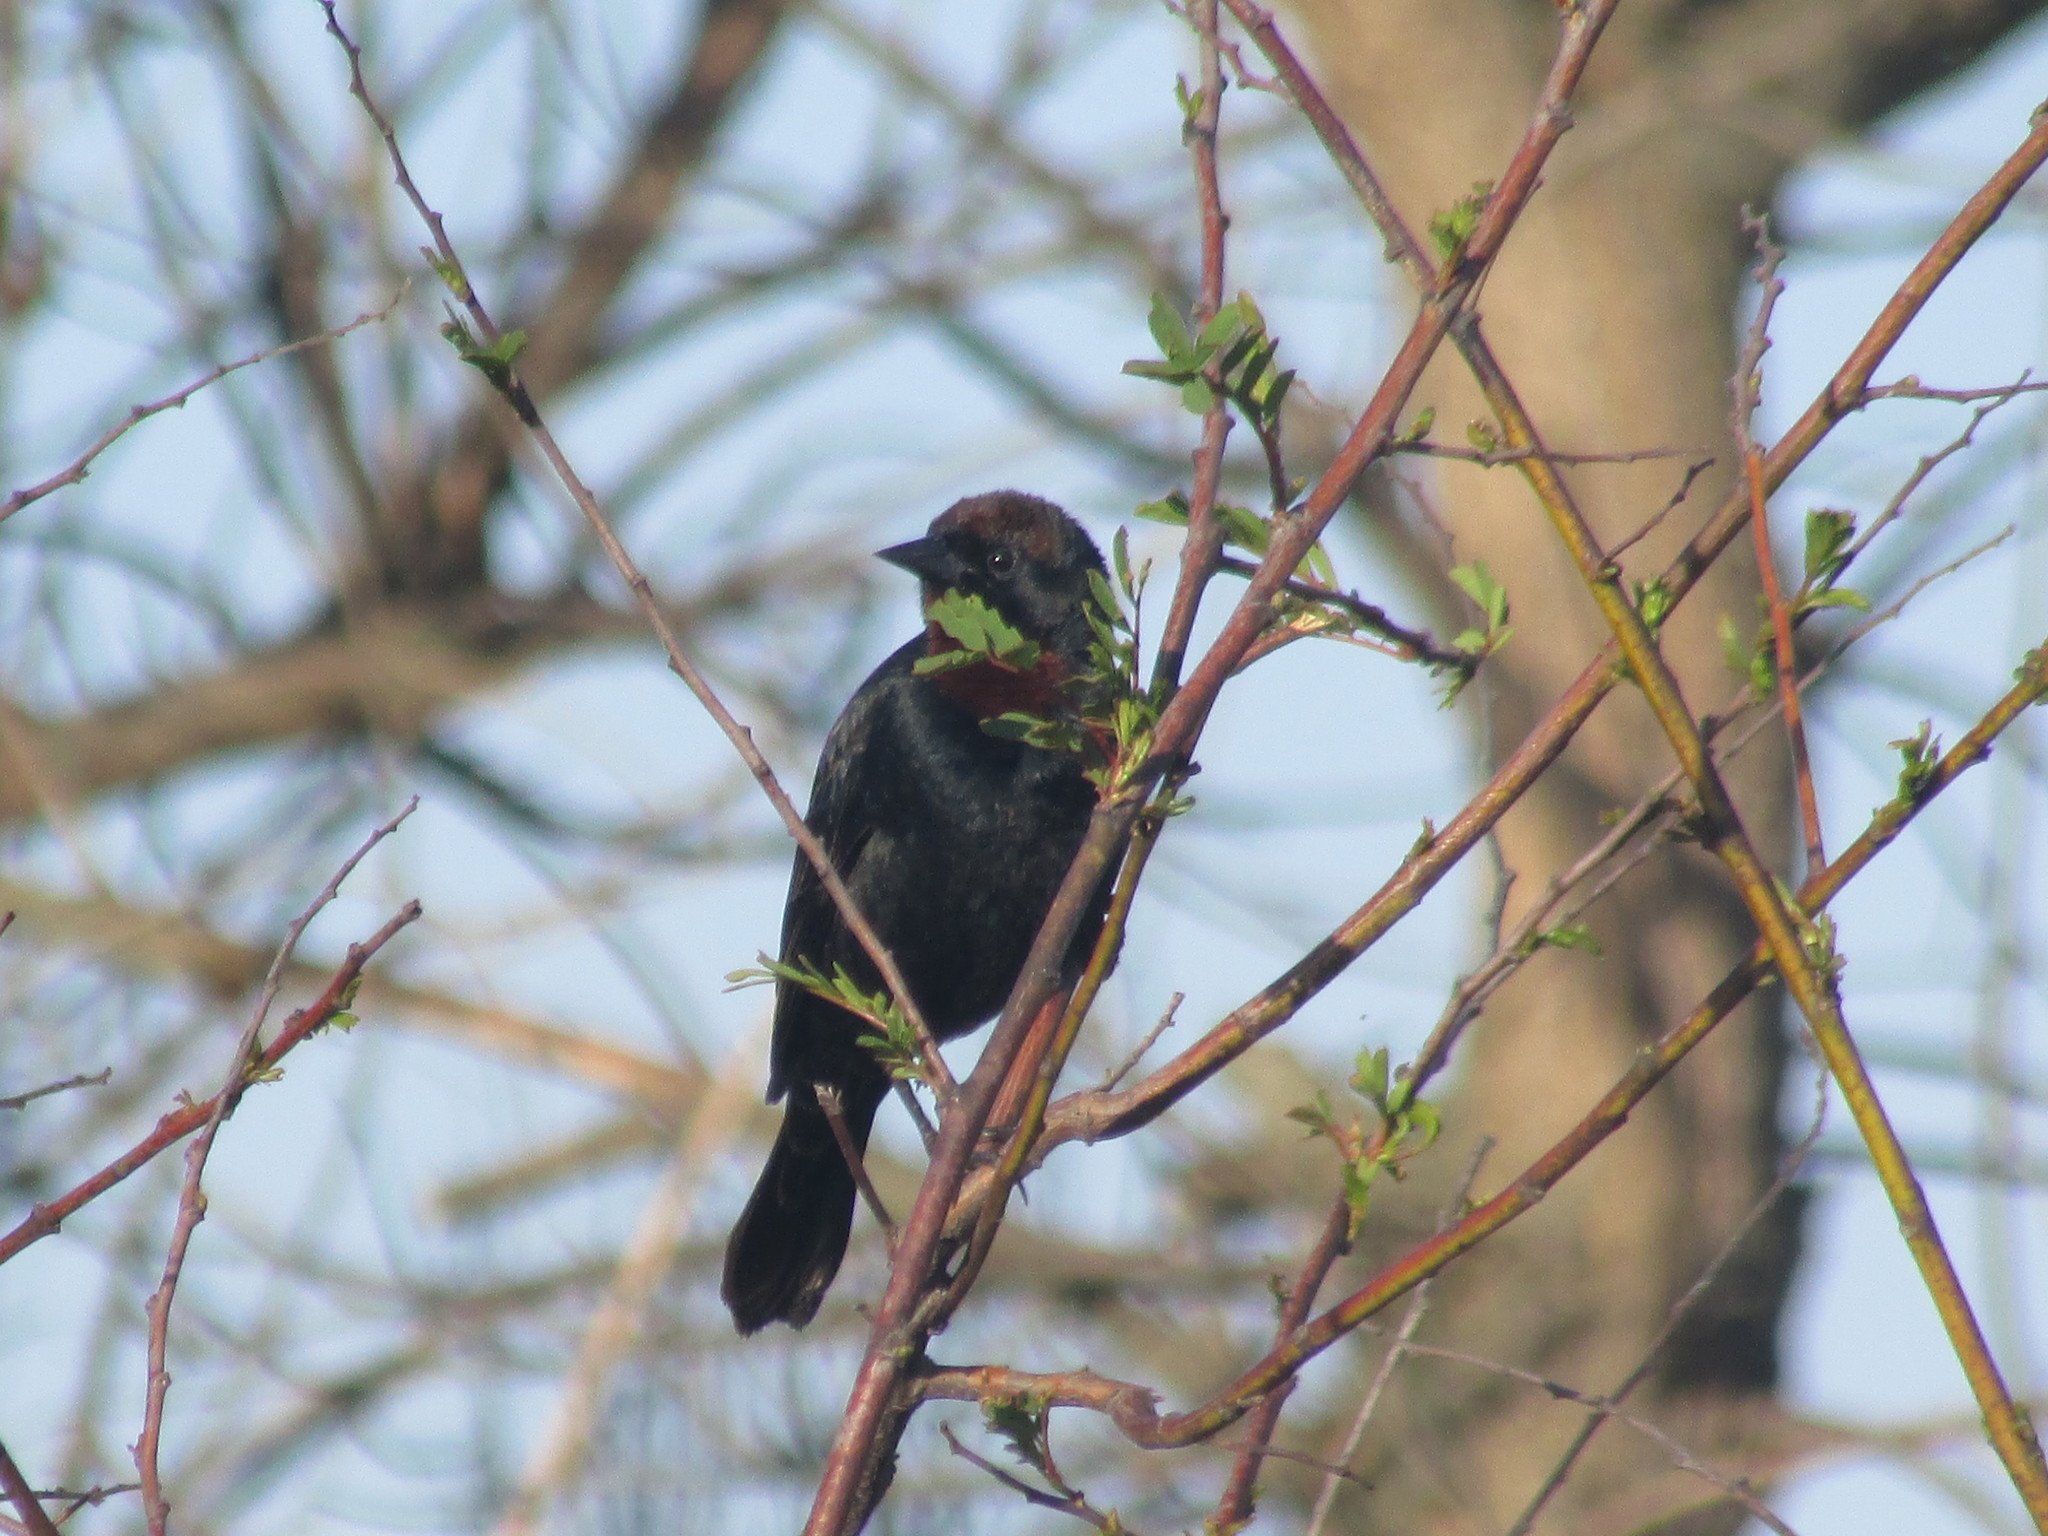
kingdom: Animalia
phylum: Chordata
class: Aves
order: Passeriformes
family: Icteridae
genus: Chrysomus
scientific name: Chrysomus ruficapillus
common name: Chestnut-capped blackbird
